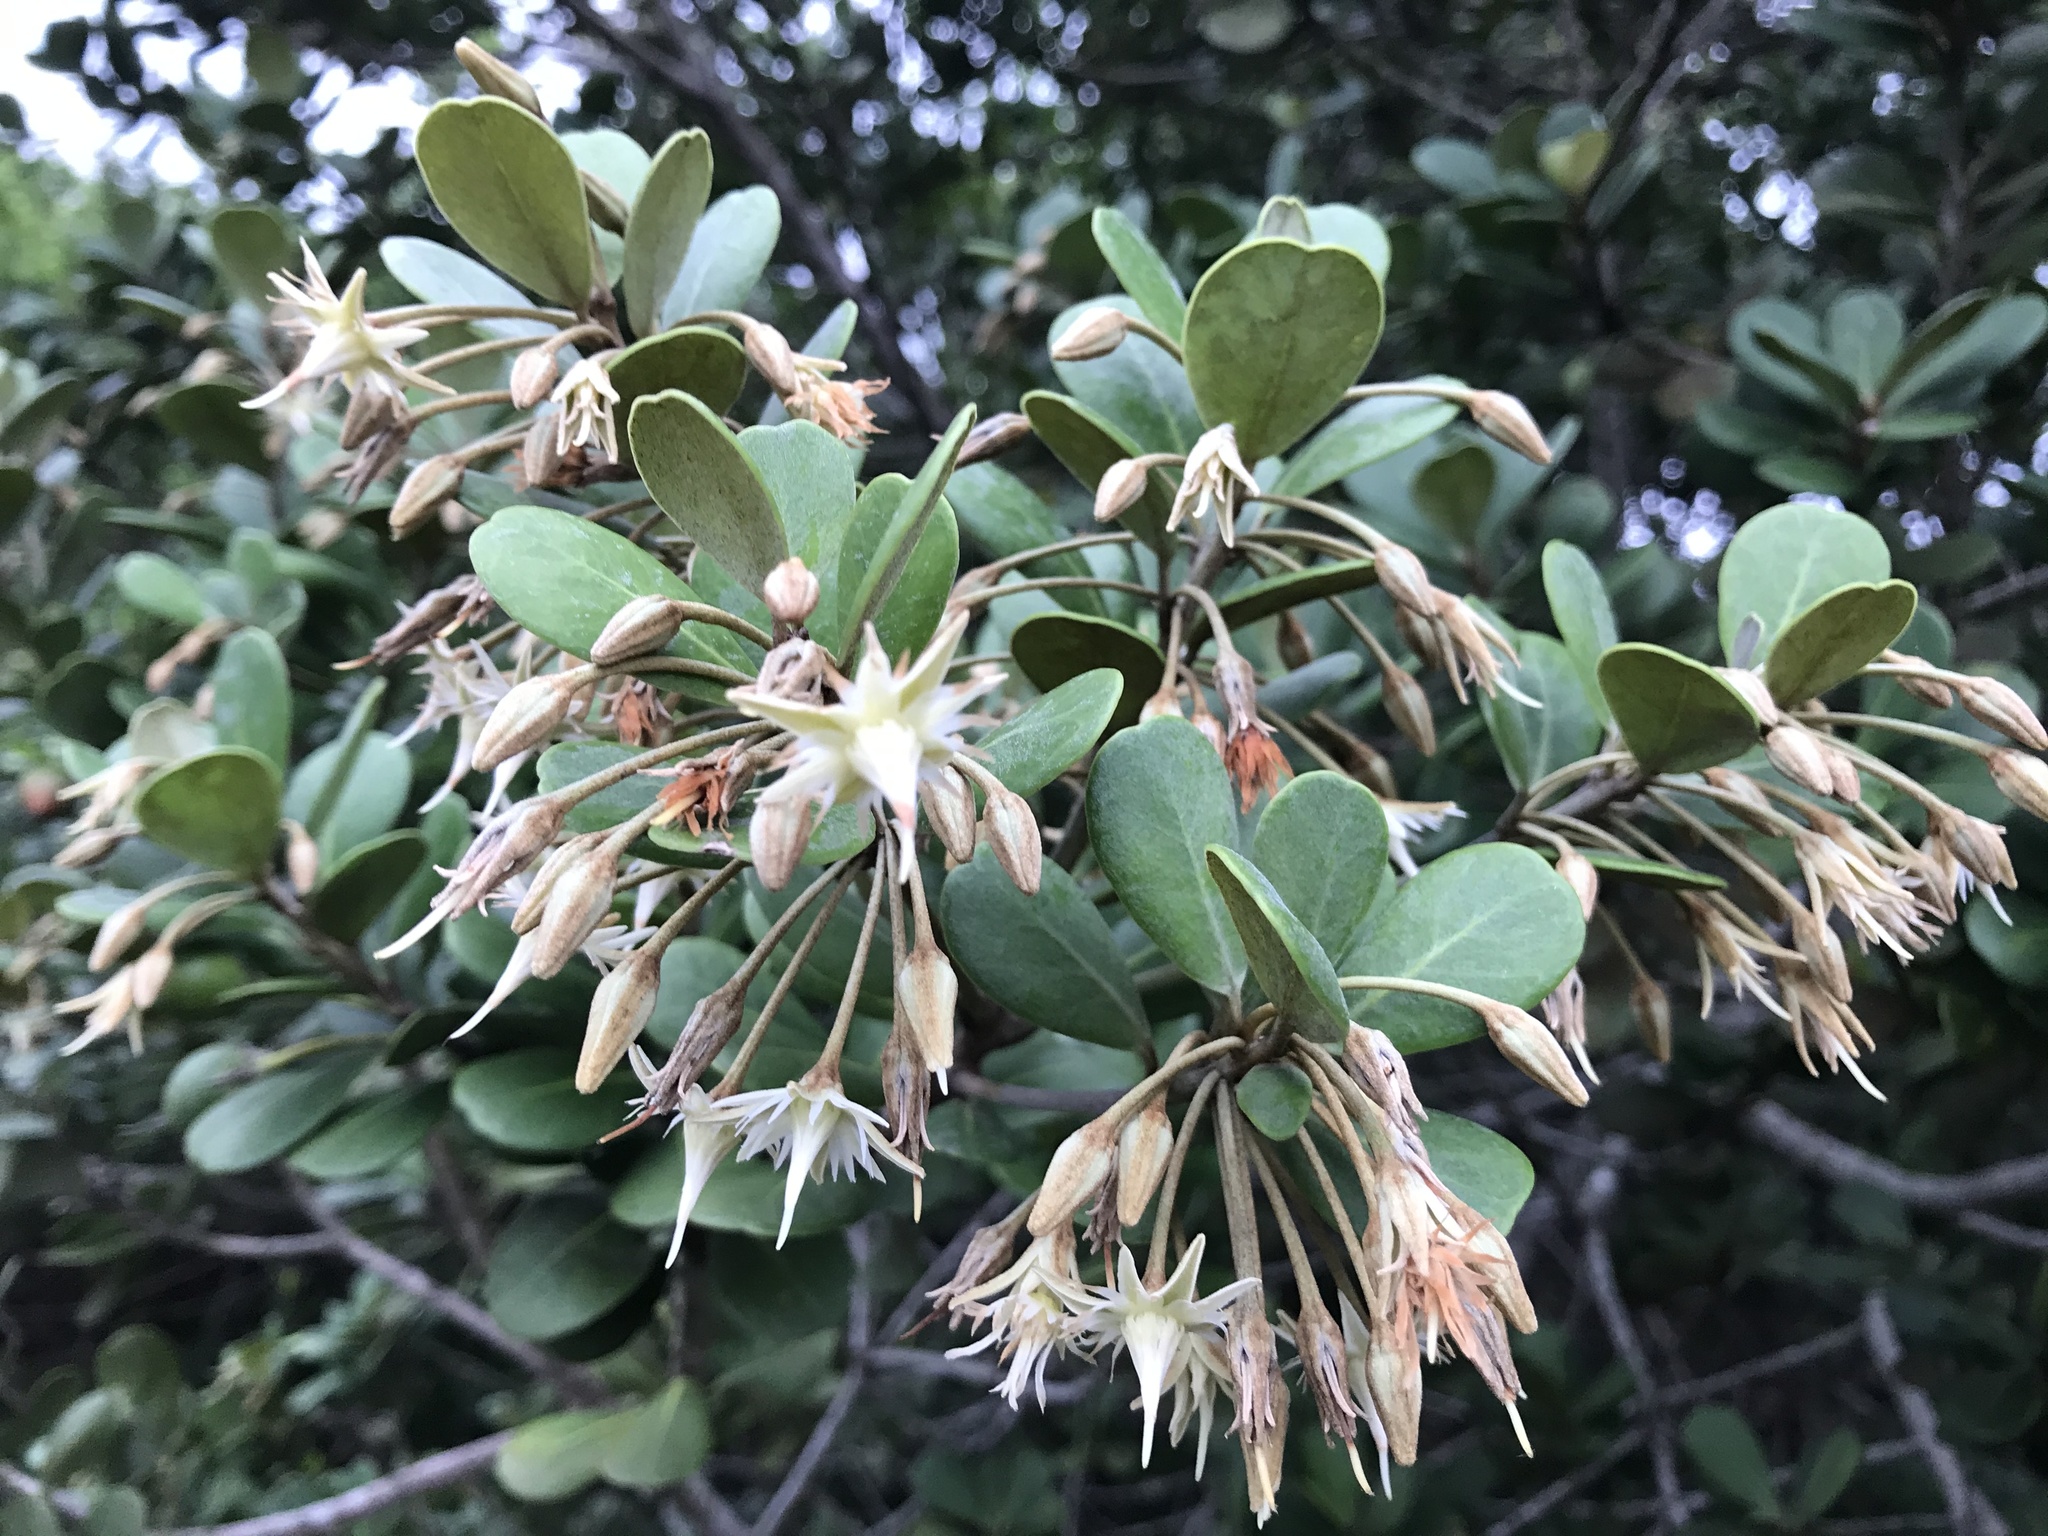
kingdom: Plantae
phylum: Tracheophyta
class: Magnoliopsida
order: Ericales
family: Sapotaceae
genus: Mimusops
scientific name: Mimusops caffra
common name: Coastal red milkwood
